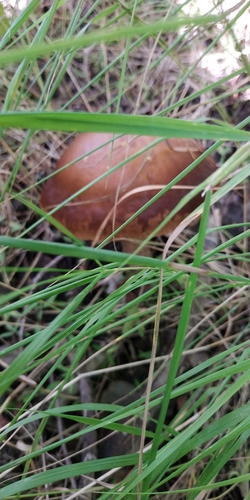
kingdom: Fungi
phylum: Basidiomycota
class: Agaricomycetes
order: Boletales
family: Boletaceae
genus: Leccinum
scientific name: Leccinum
